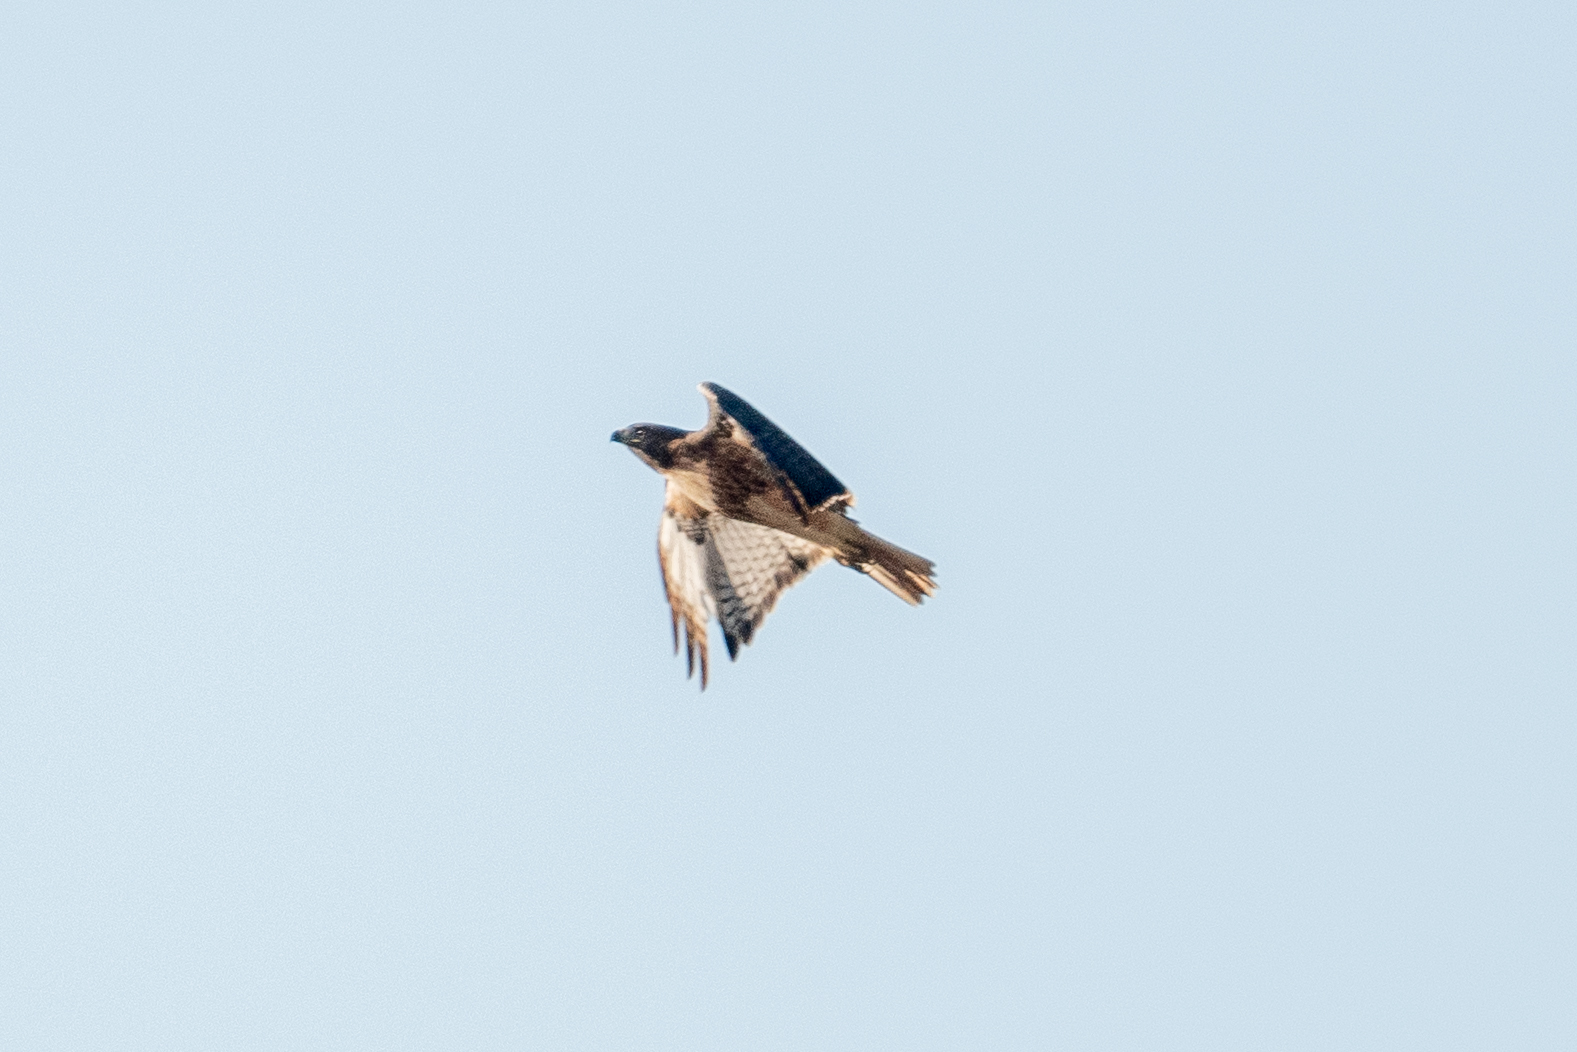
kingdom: Animalia
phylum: Chordata
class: Aves
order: Accipitriformes
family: Accipitridae
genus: Buteo
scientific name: Buteo jamaicensis
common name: Red-tailed hawk
